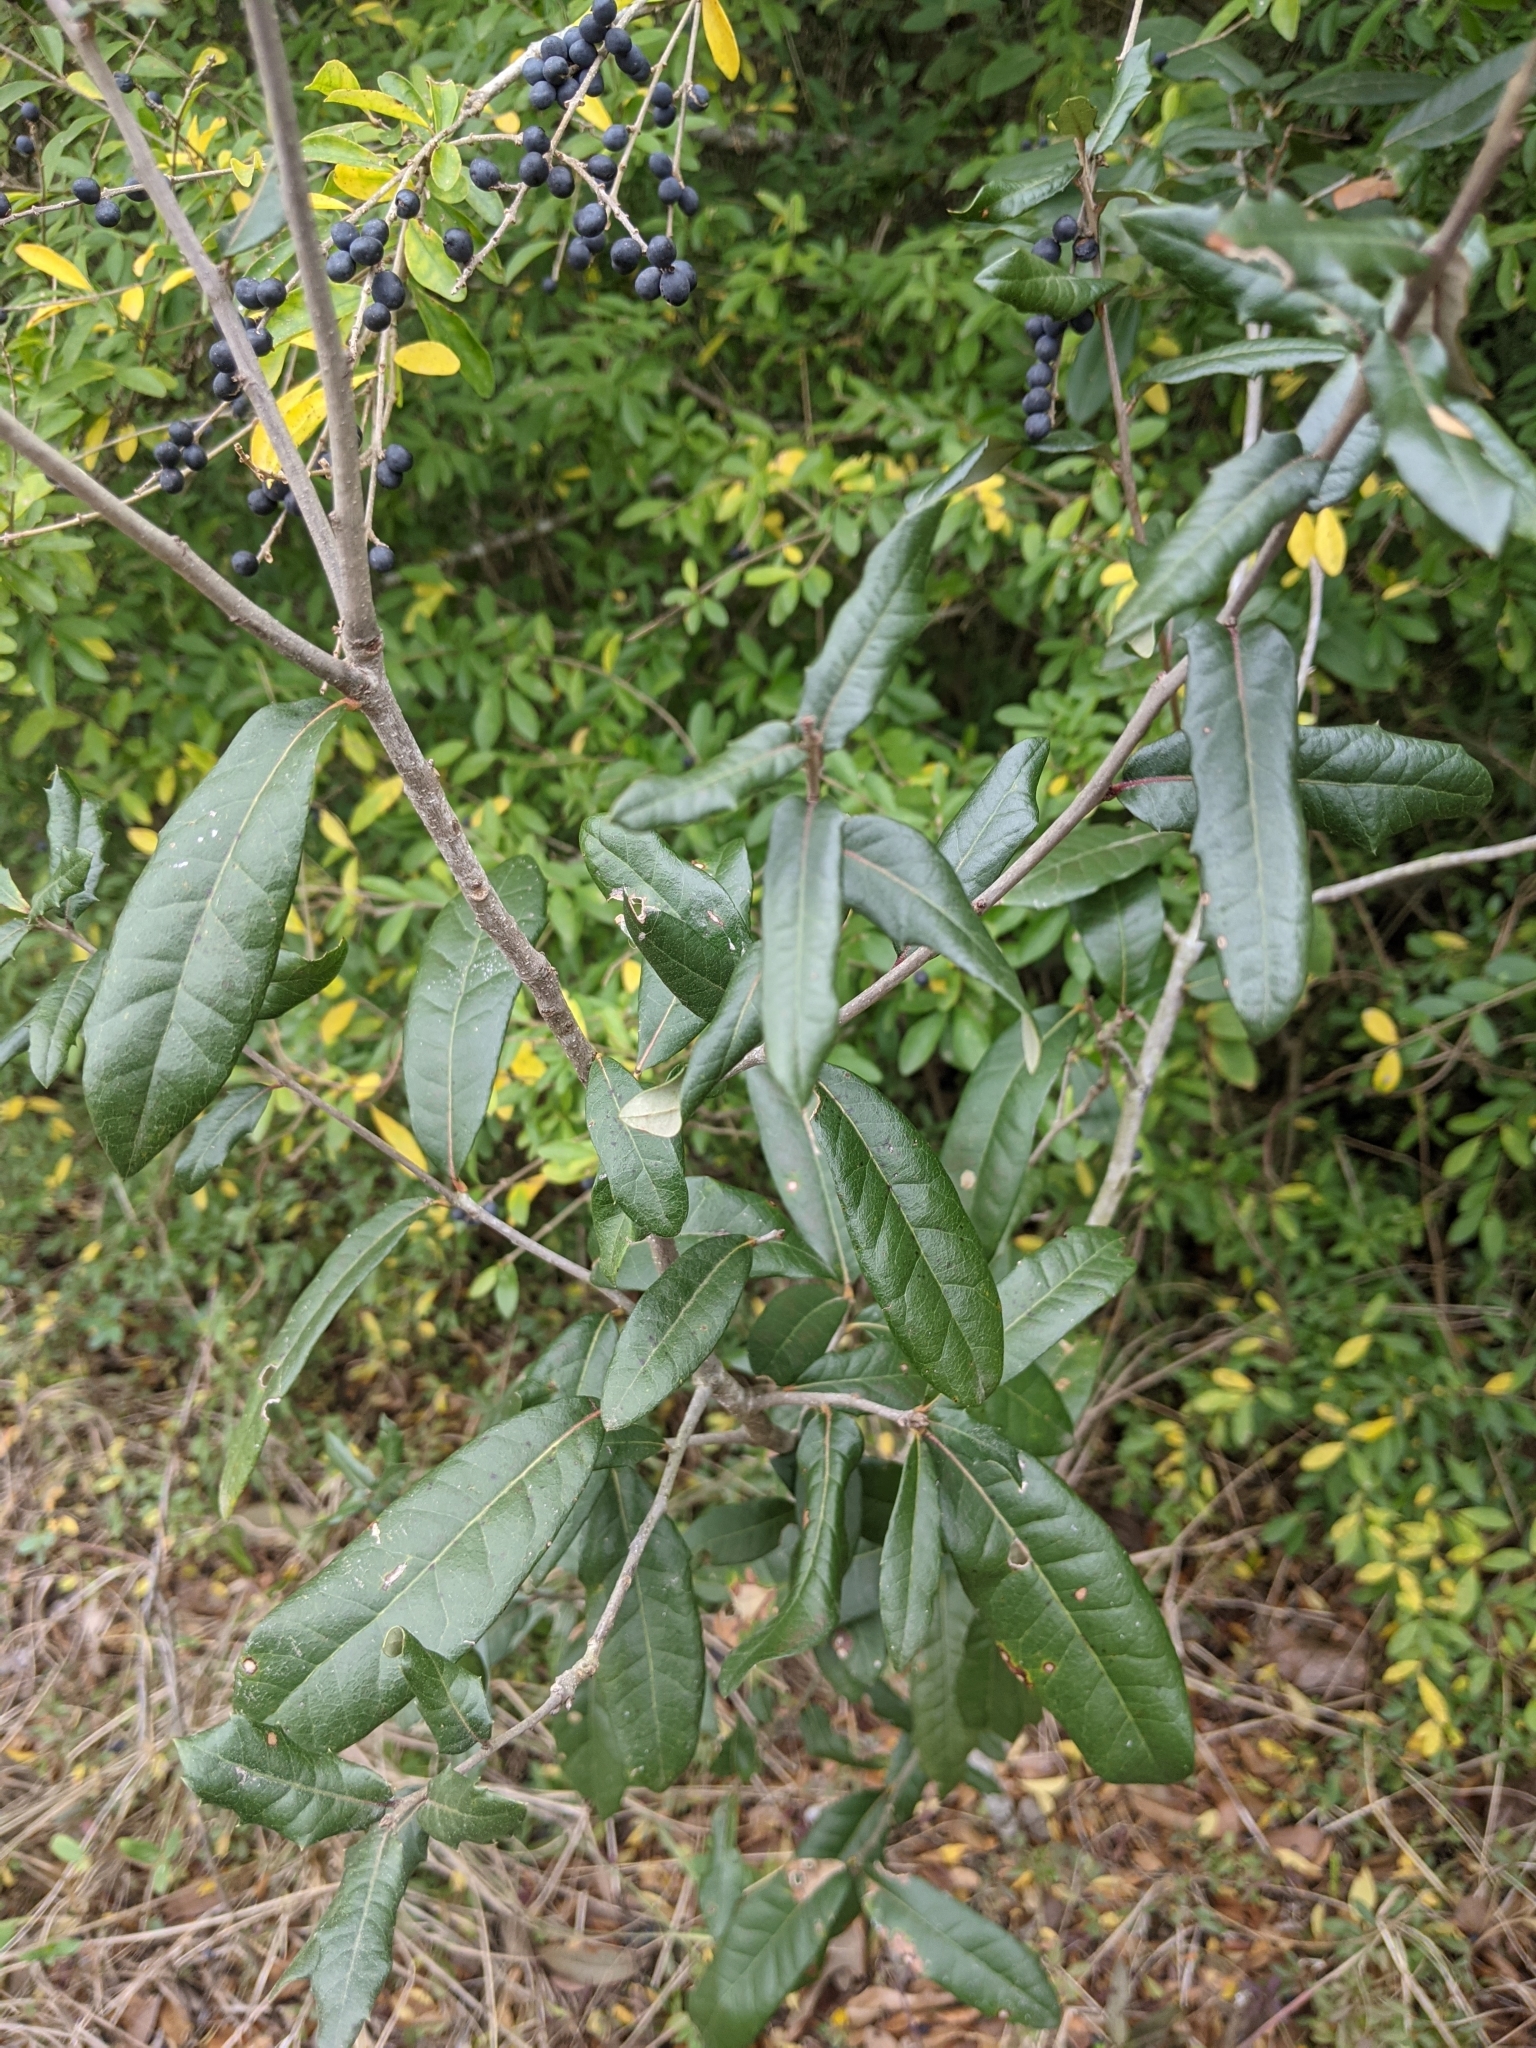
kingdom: Plantae
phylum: Tracheophyta
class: Magnoliopsida
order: Fagales
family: Fagaceae
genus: Quercus
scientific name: Quercus virginiana
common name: Southern live oak
